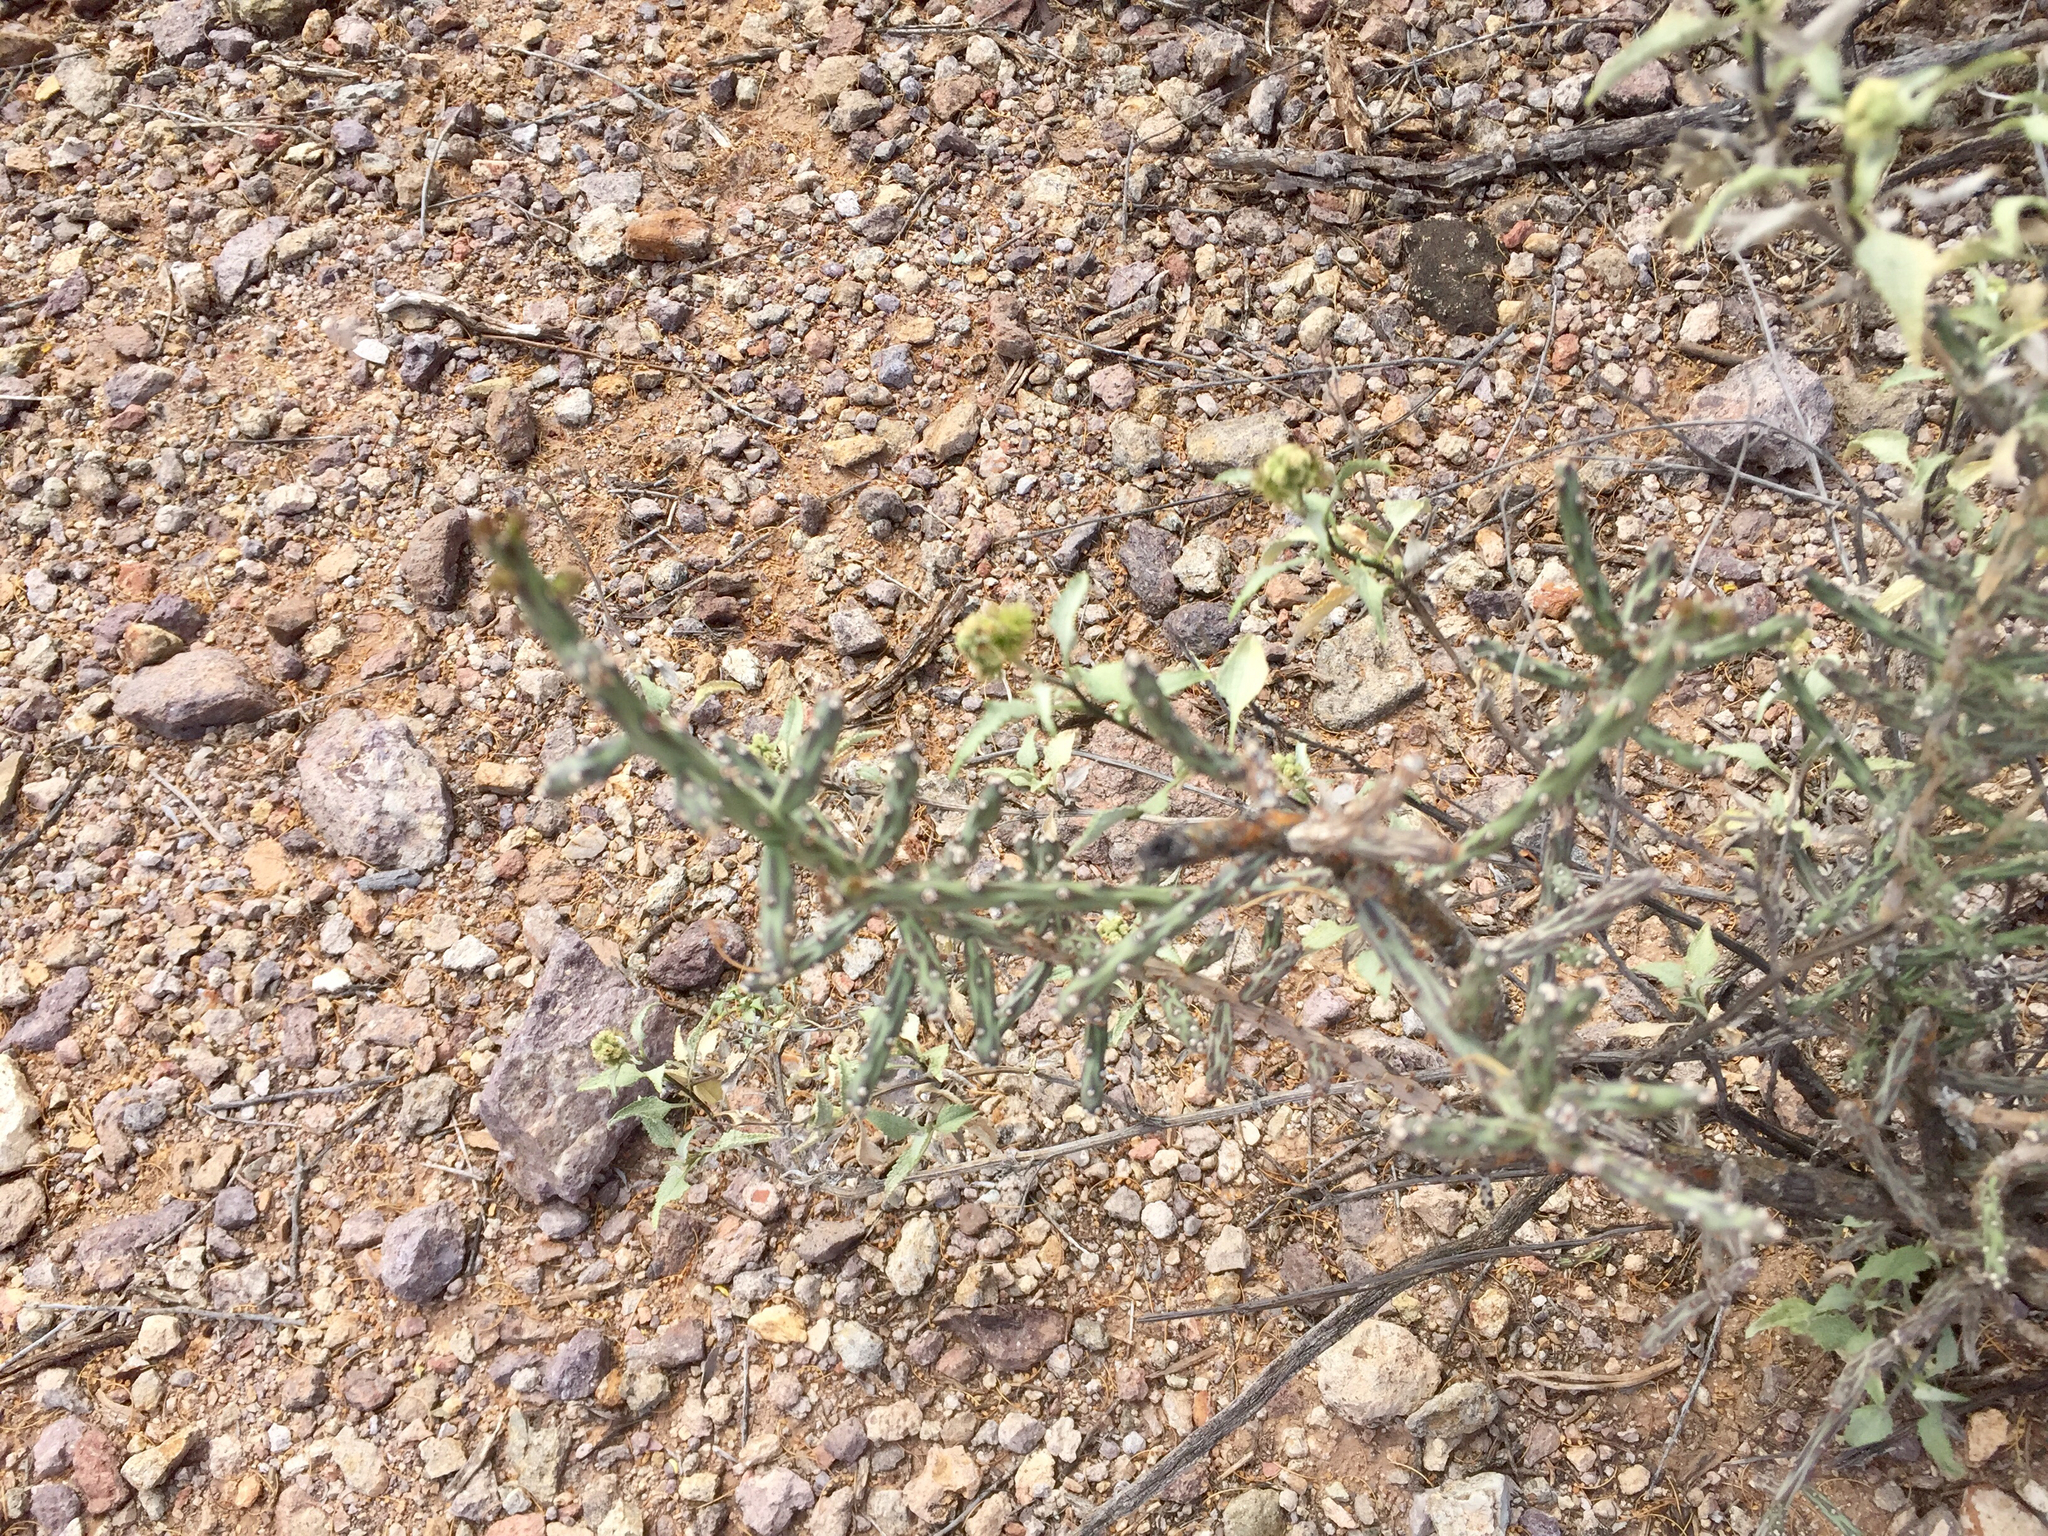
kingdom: Plantae
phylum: Tracheophyta
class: Magnoliopsida
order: Caryophyllales
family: Cactaceae
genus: Cylindropuntia
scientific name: Cylindropuntia leptocaulis
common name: Christmas cactus
